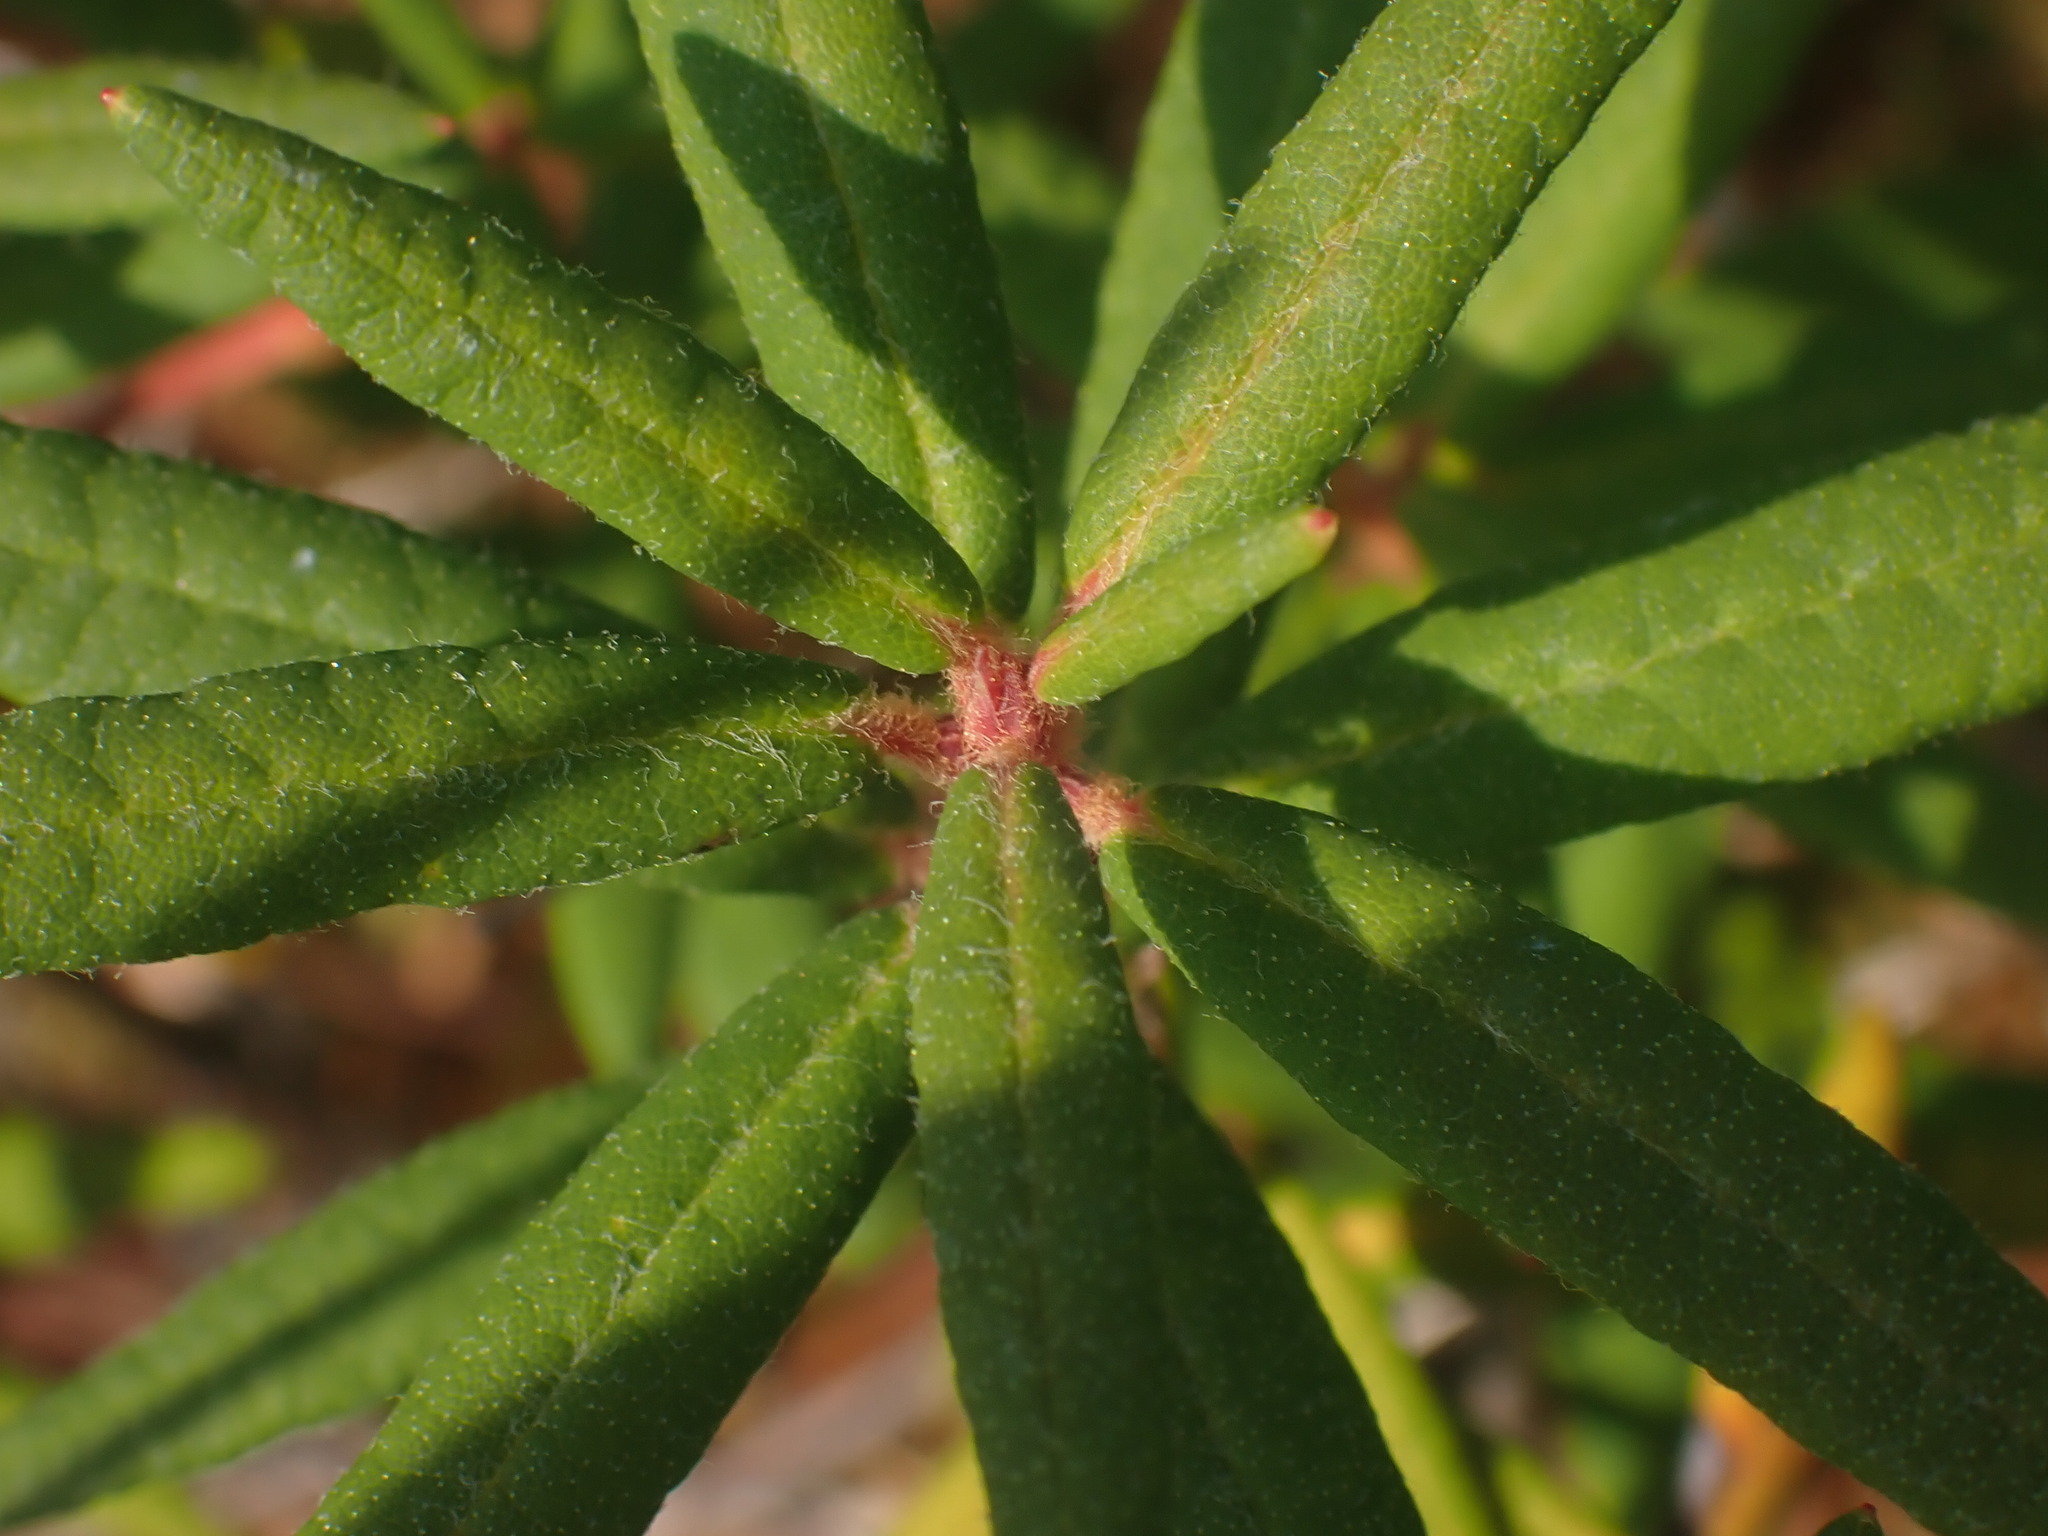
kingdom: Plantae
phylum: Tracheophyta
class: Magnoliopsida
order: Ericales
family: Ericaceae
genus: Rhododendron
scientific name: Rhododendron groenlandicum
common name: Bog labrador tea
